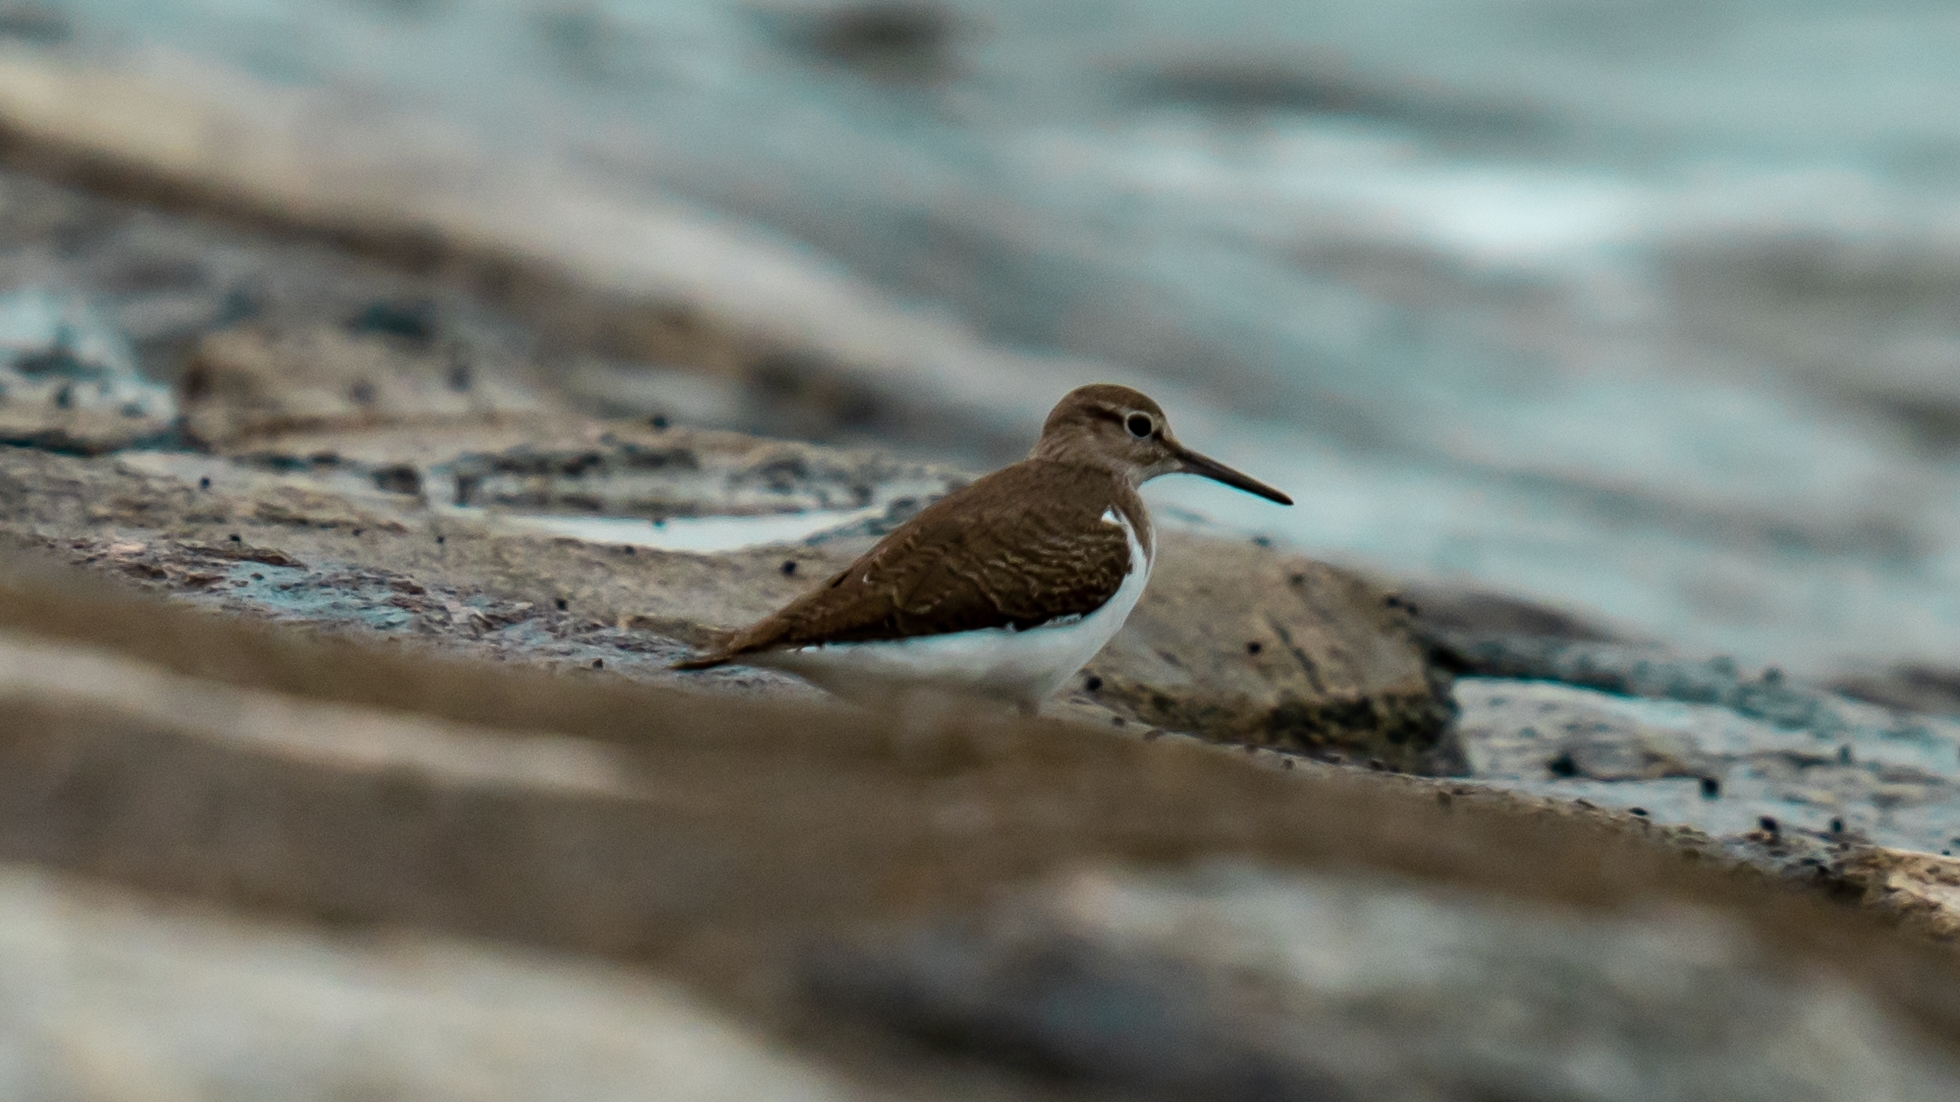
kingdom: Animalia
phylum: Chordata
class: Aves
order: Charadriiformes
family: Scolopacidae
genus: Actitis
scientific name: Actitis hypoleucos
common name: Common sandpiper
